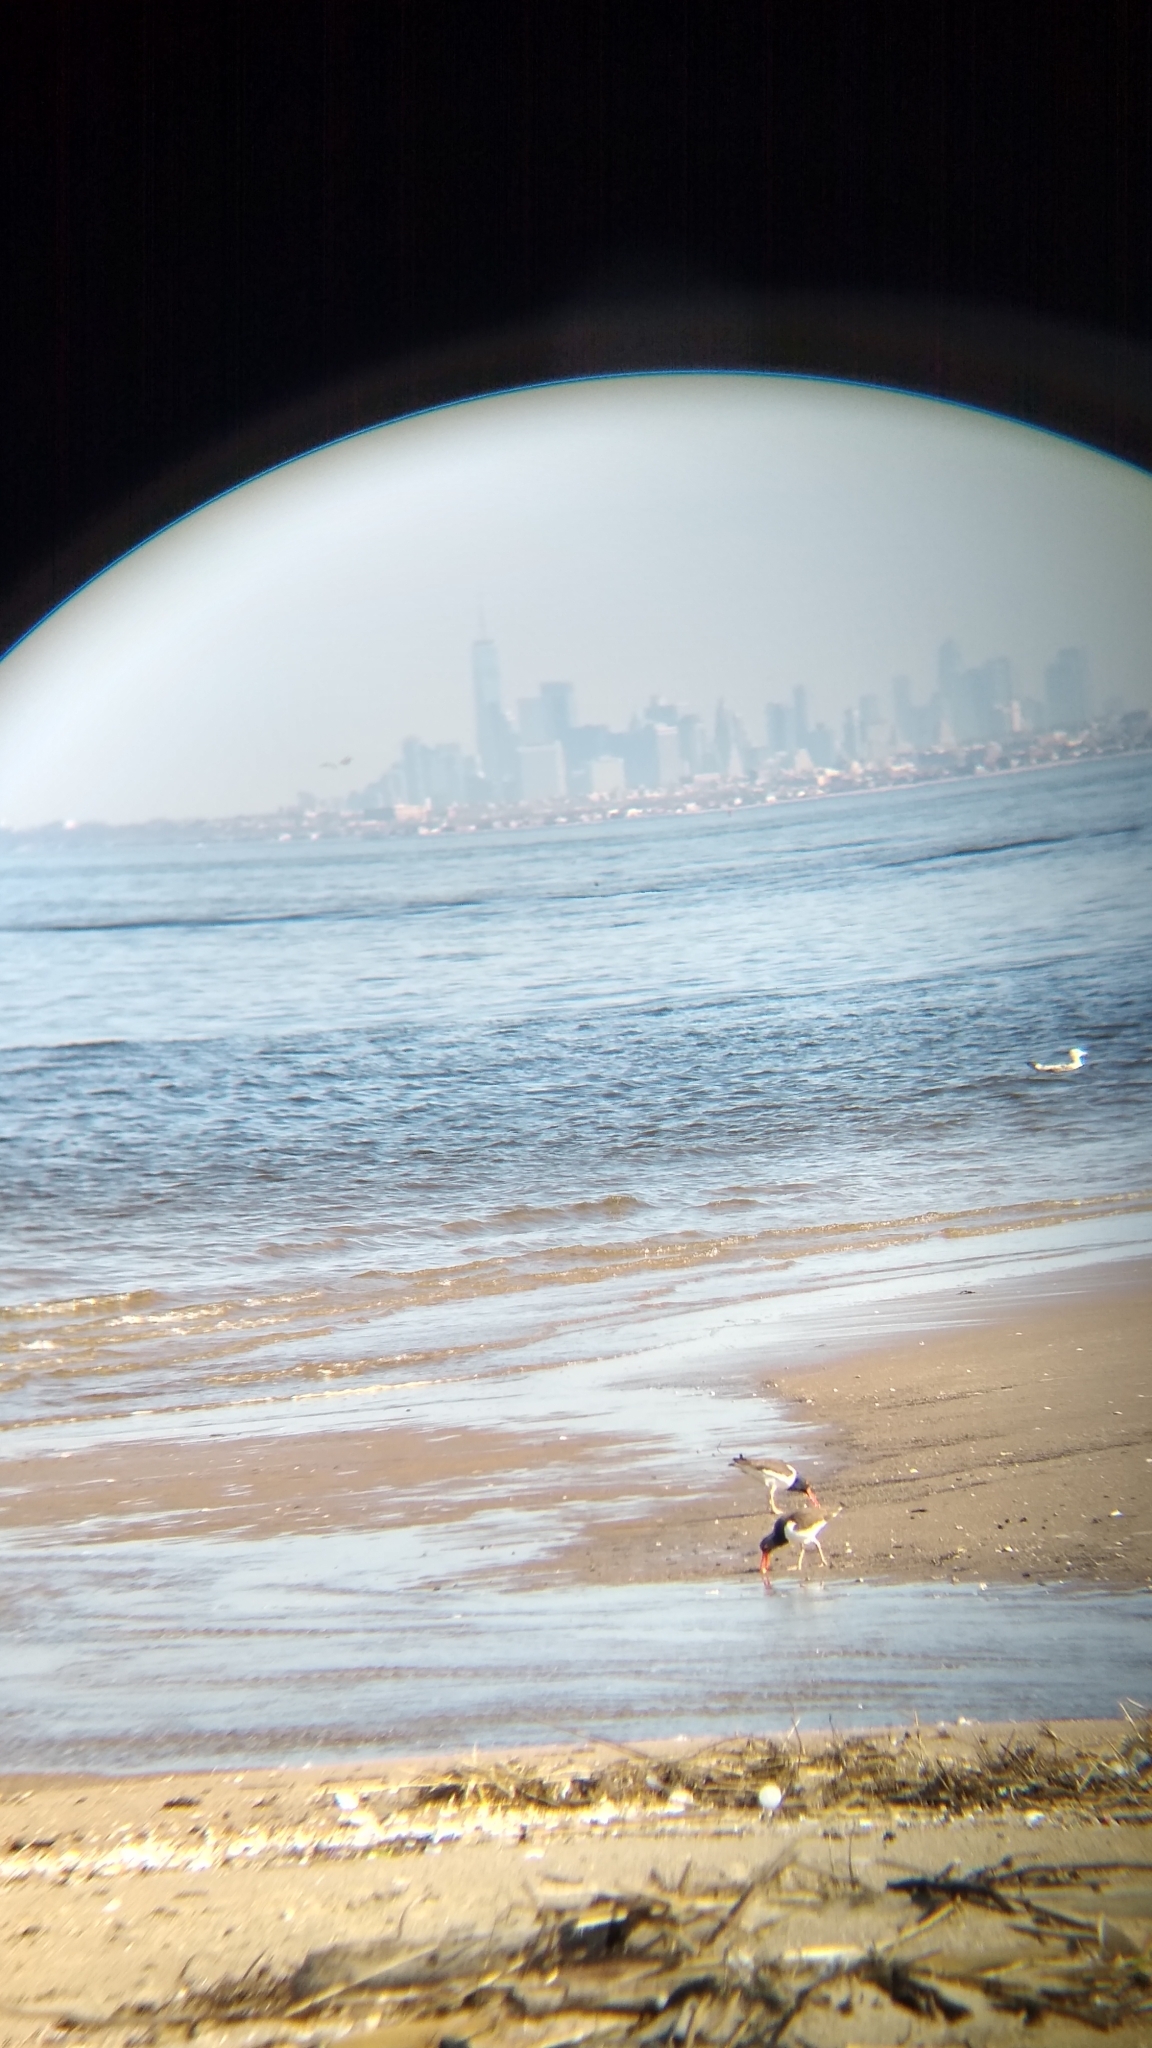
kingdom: Animalia
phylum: Chordata
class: Aves
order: Charadriiformes
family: Haematopodidae
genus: Haematopus
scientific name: Haematopus palliatus
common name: American oystercatcher
